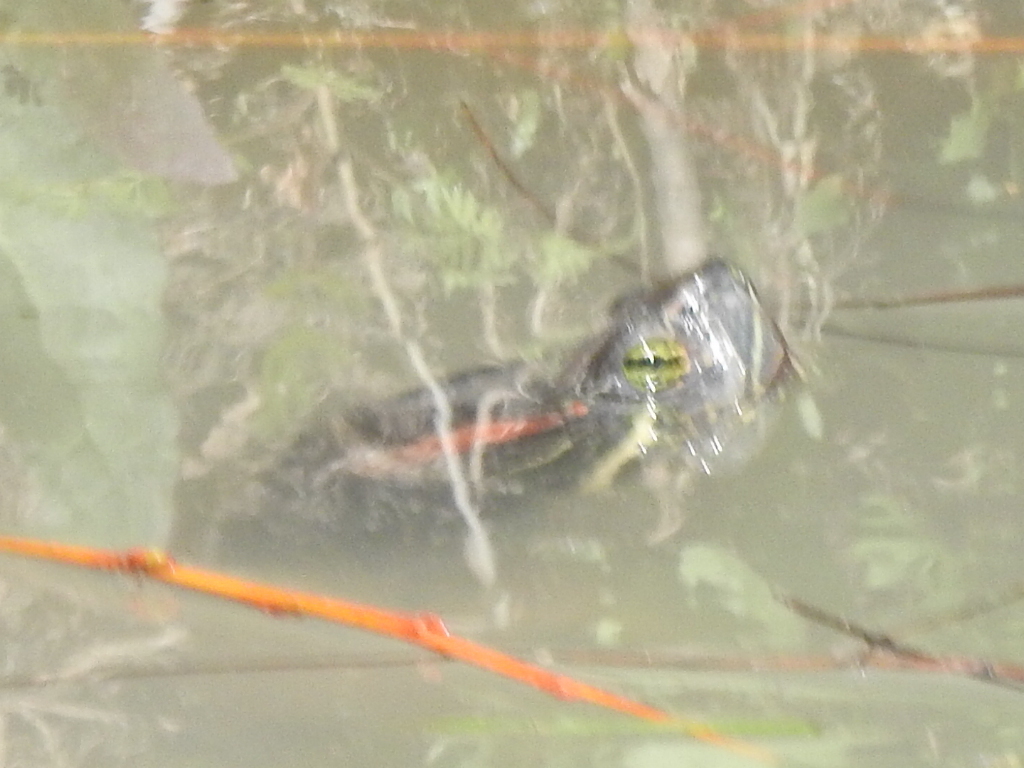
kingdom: Animalia
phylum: Chordata
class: Testudines
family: Emydidae
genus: Trachemys
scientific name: Trachemys scripta
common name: Slider
